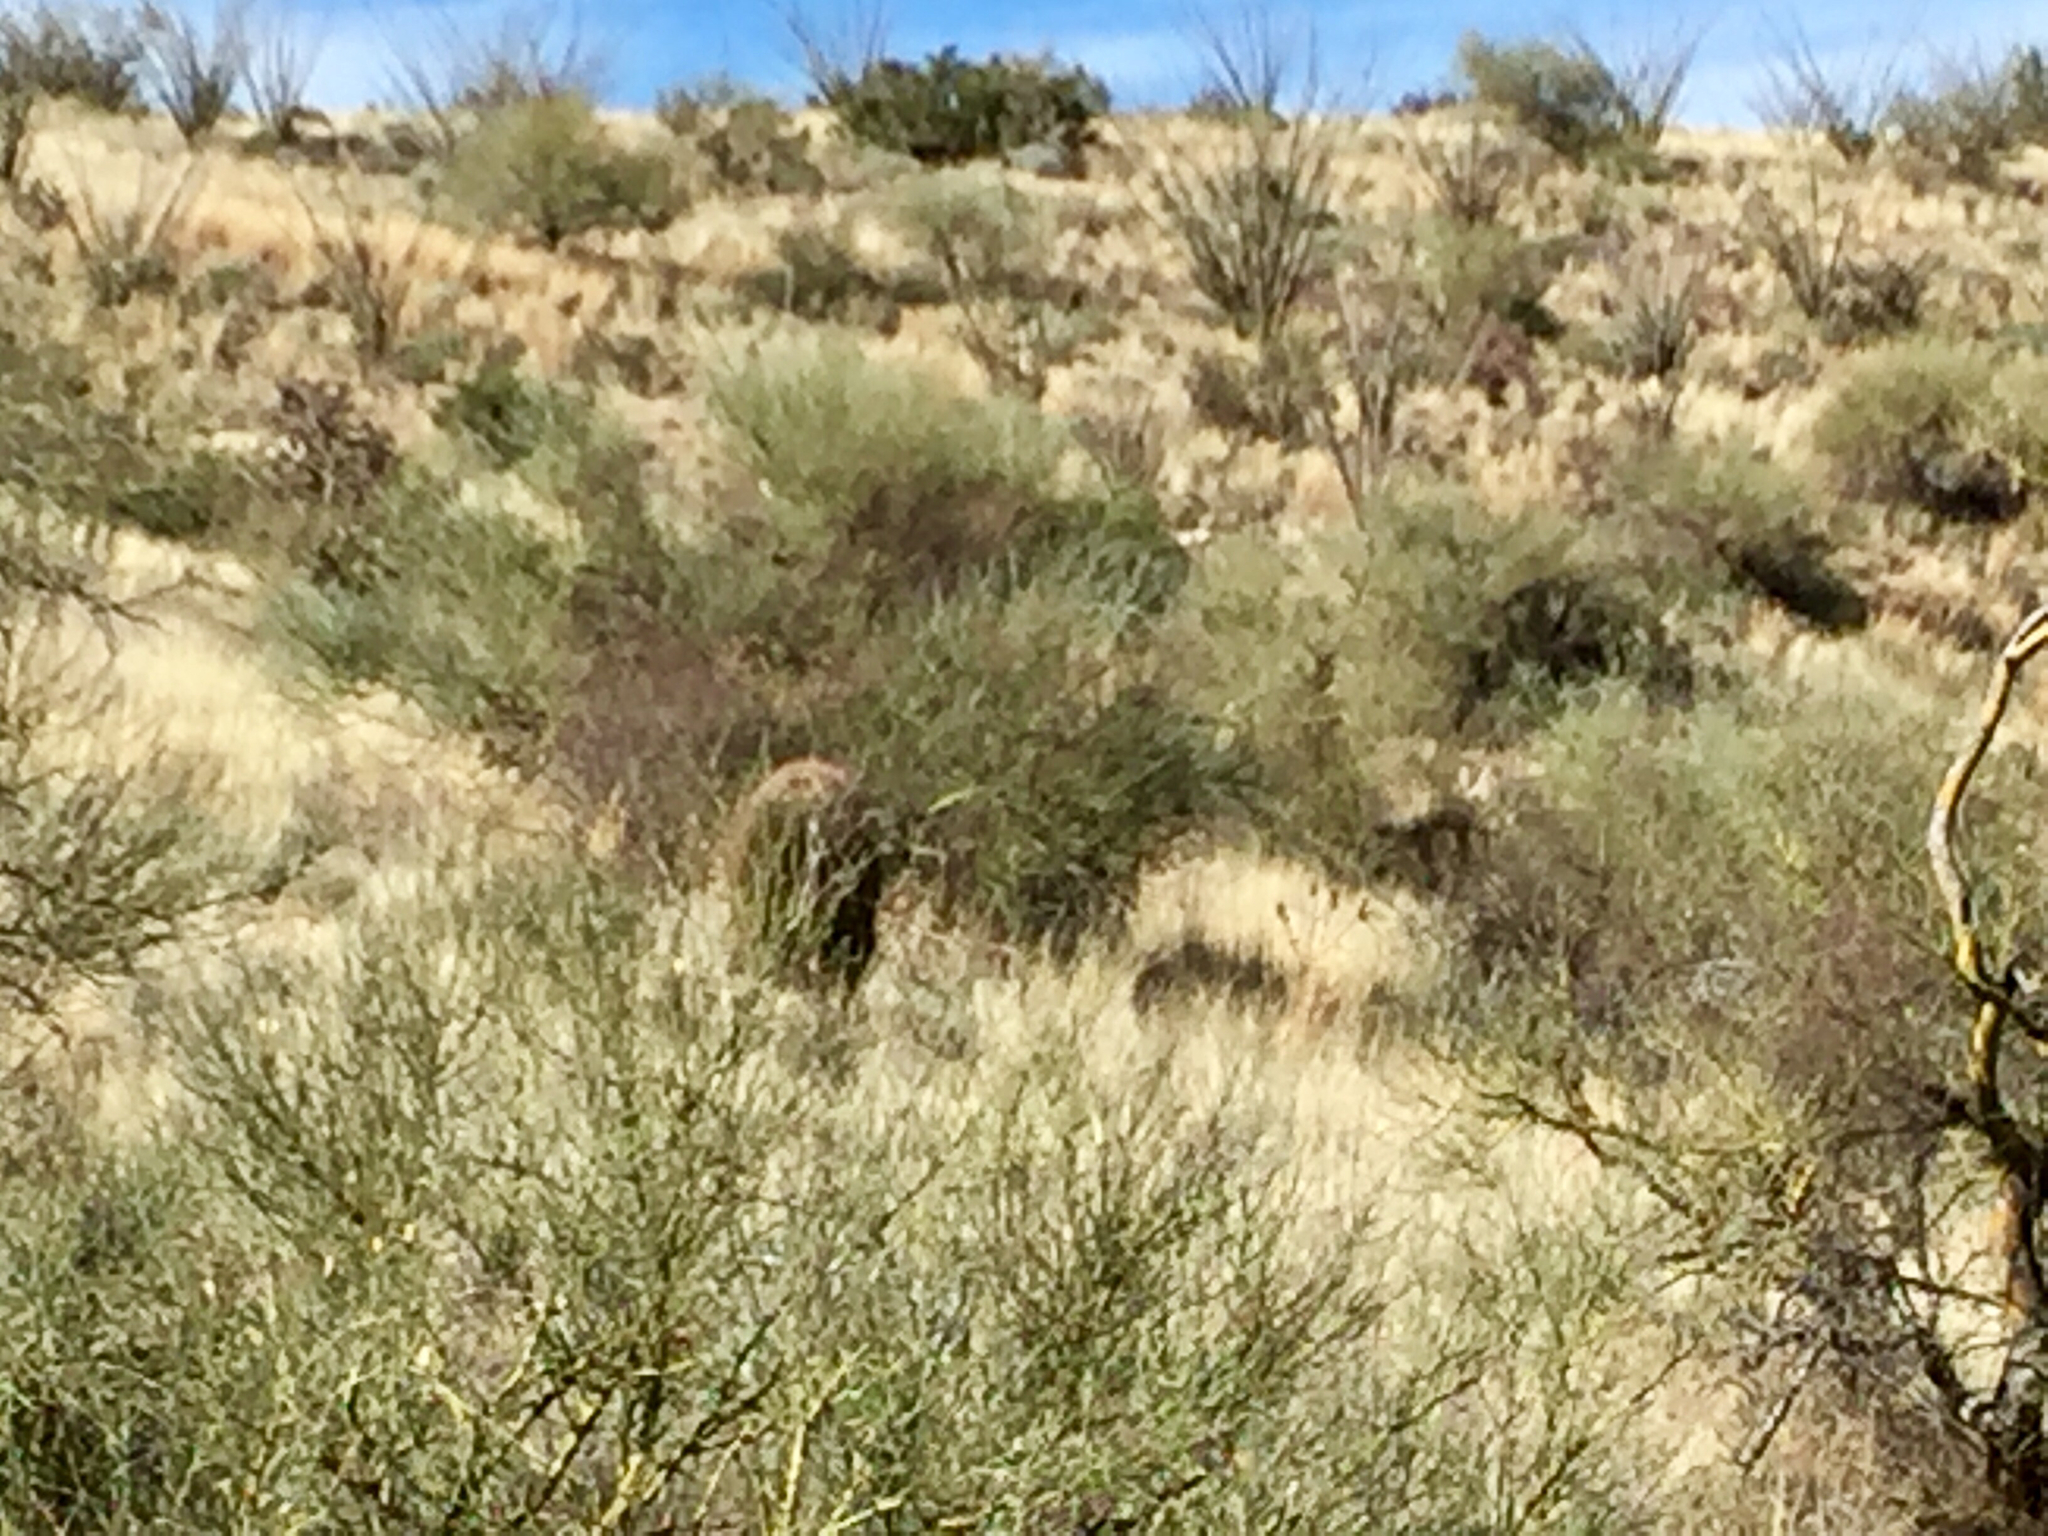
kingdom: Plantae
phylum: Tracheophyta
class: Magnoliopsida
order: Caryophyllales
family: Cactaceae
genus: Ferocactus
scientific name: Ferocactus wislizeni
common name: Candy barrel cactus
